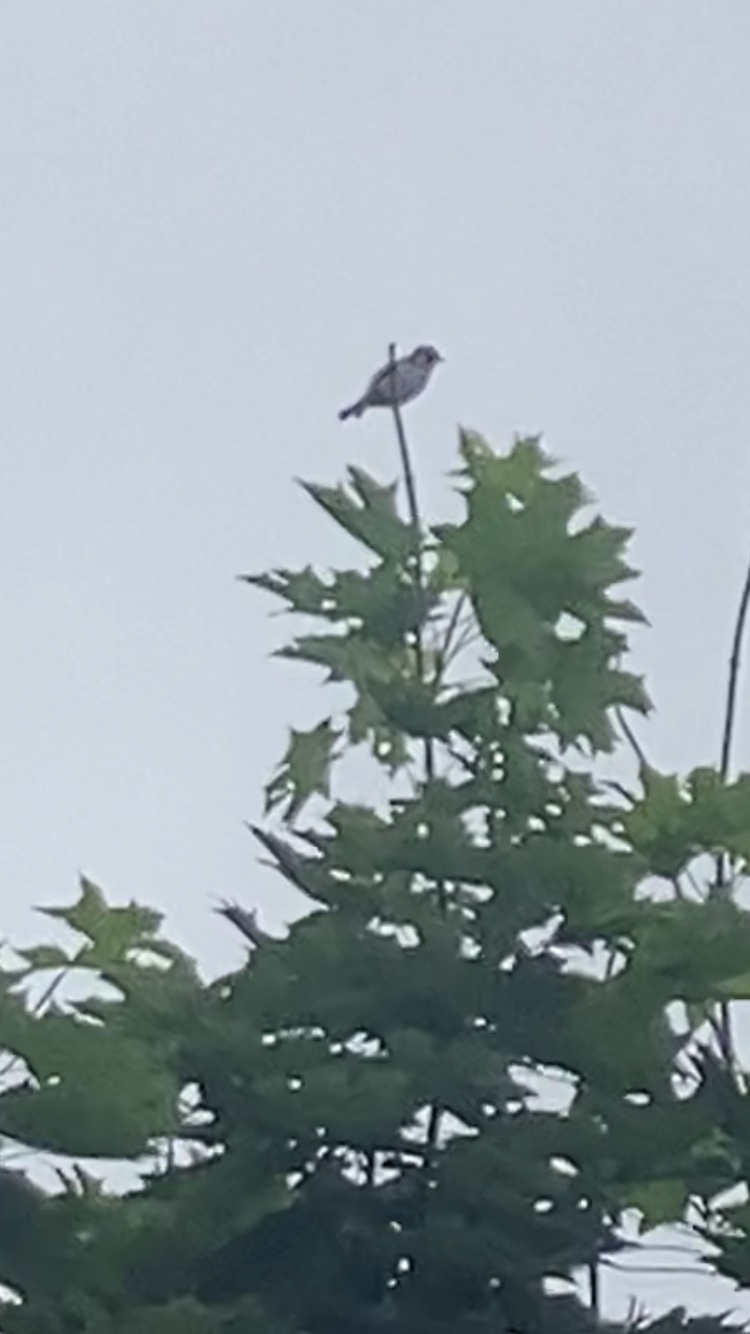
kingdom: Animalia
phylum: Chordata
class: Aves
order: Passeriformes
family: Fringillidae
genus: Carduelis
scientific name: Carduelis carduelis
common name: European goldfinch
